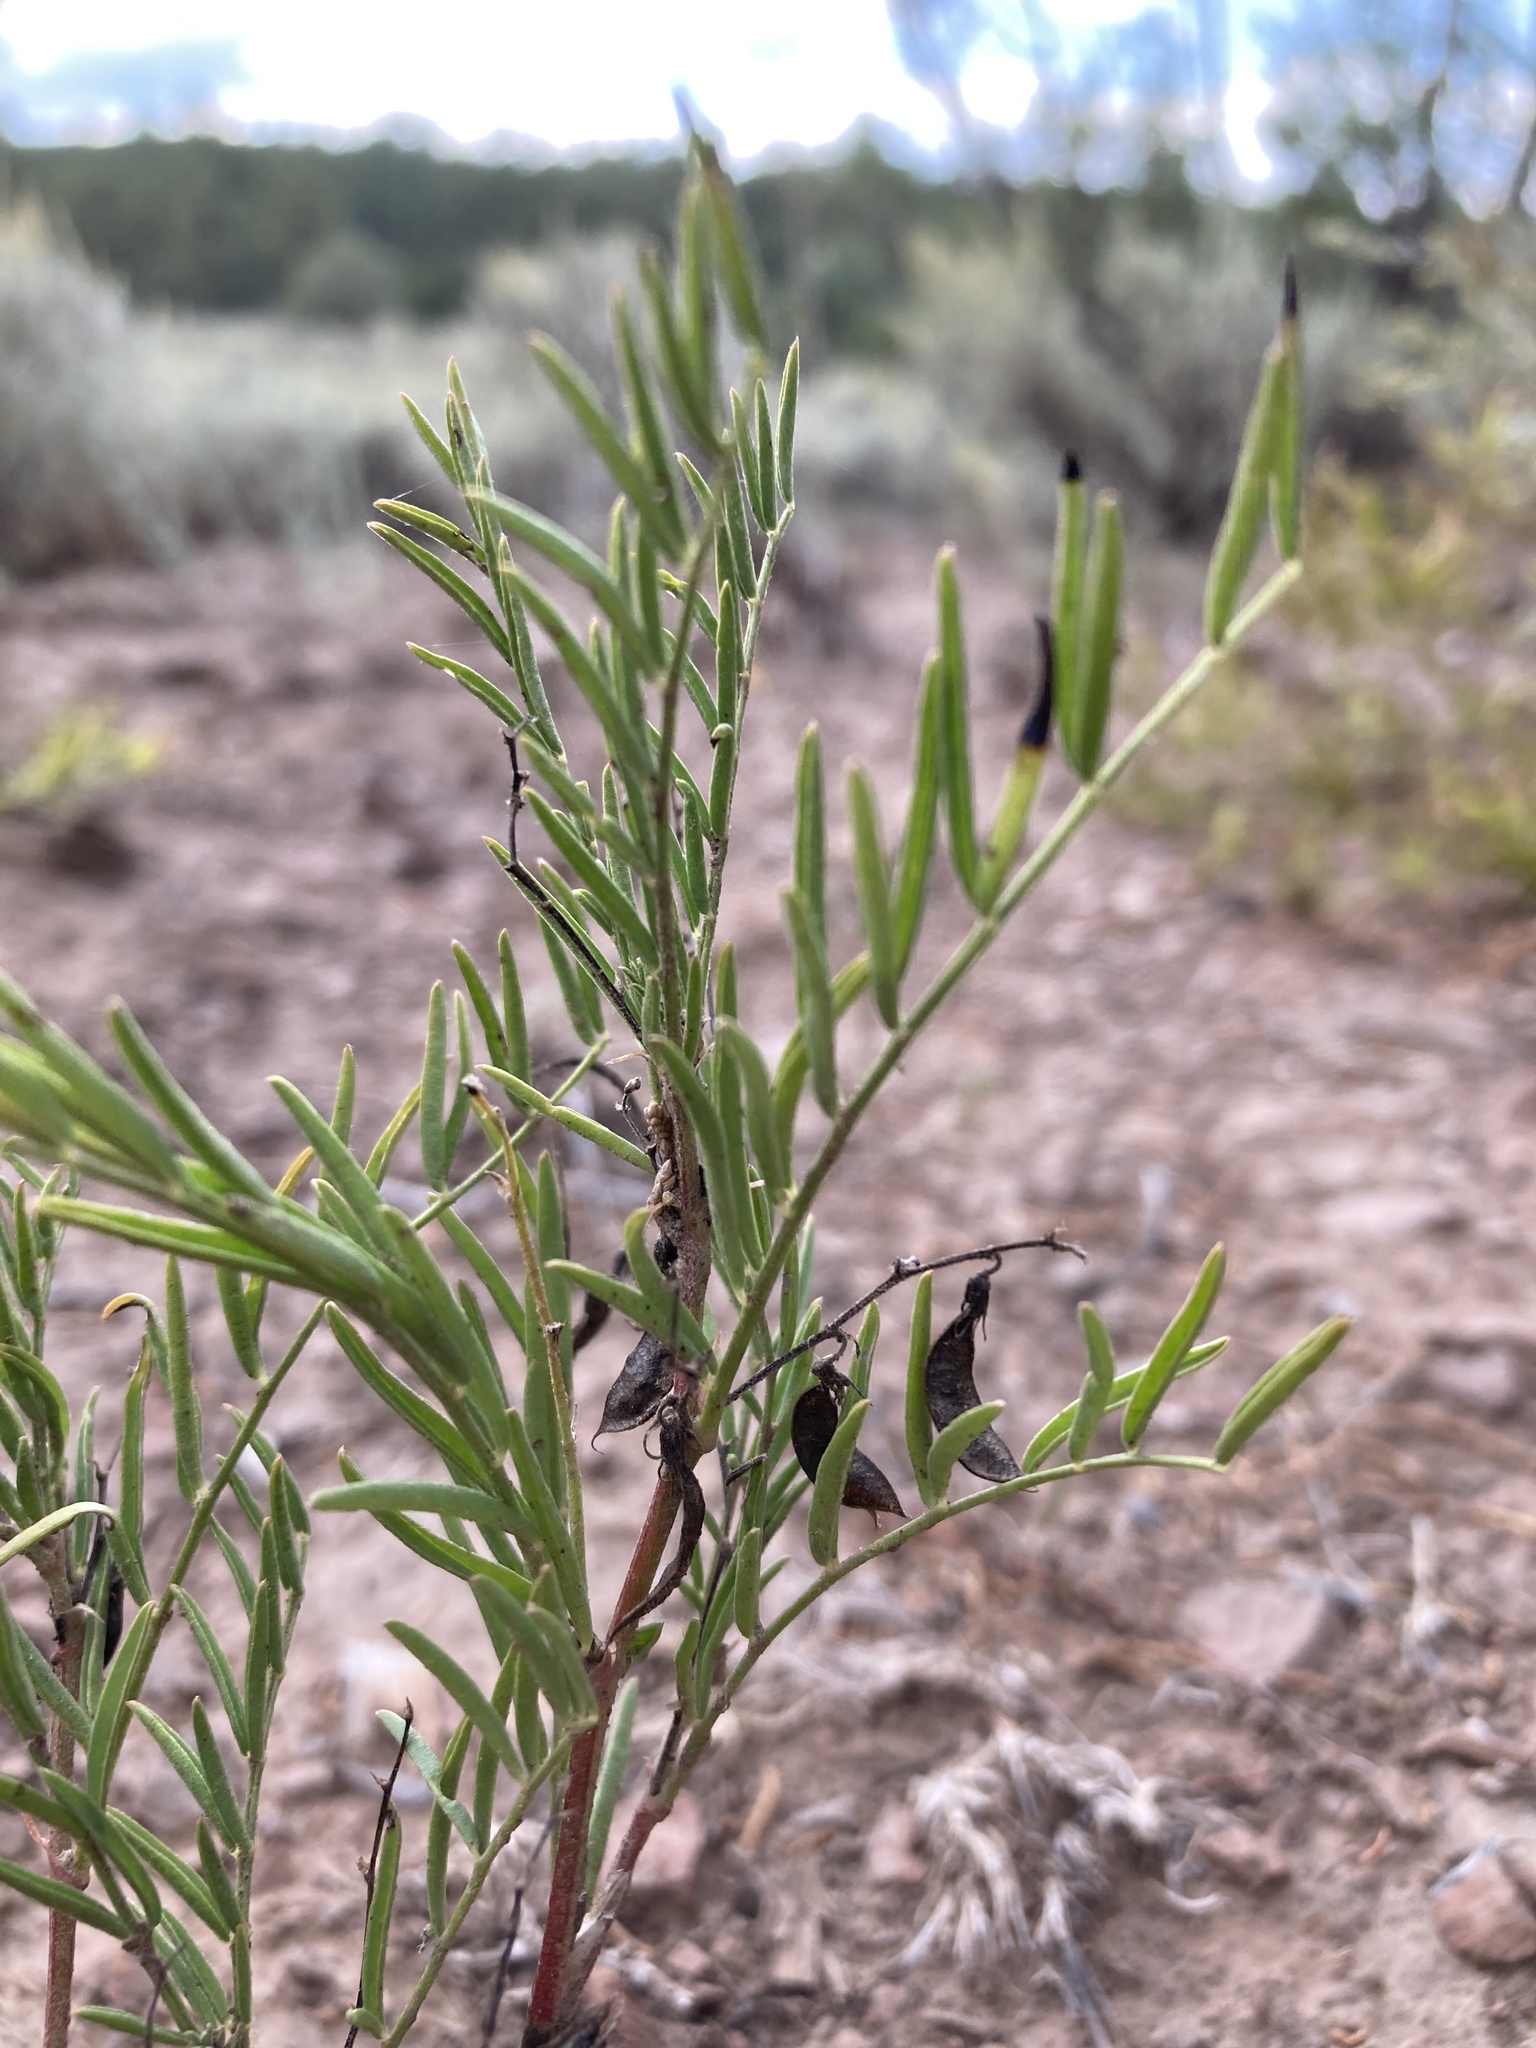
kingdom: Plantae
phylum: Tracheophyta
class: Magnoliopsida
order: Fabales
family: Fabaceae
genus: Astragalus
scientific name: Astragalus tenellus
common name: Pulse milk-vetch
